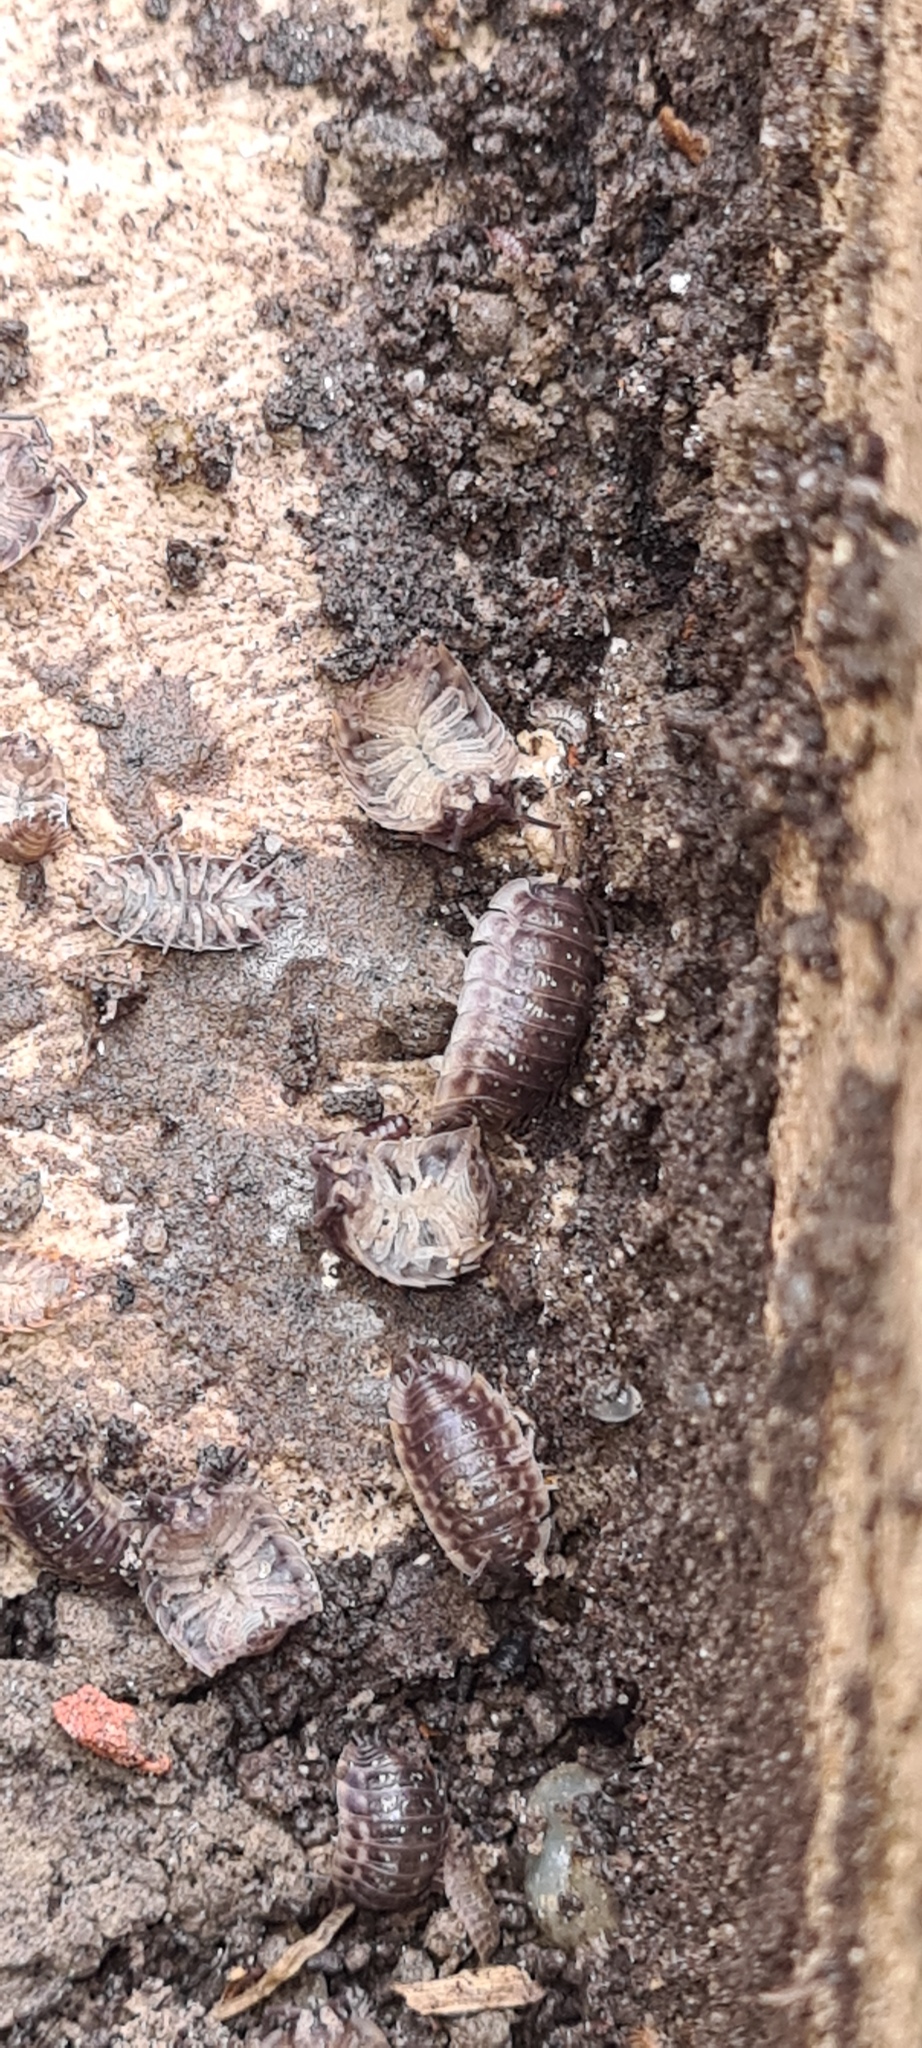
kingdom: Animalia
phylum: Arthropoda
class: Malacostraca
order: Isopoda
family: Oniscidae
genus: Oniscus
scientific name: Oniscus asellus
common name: Common shiny woodlouse
